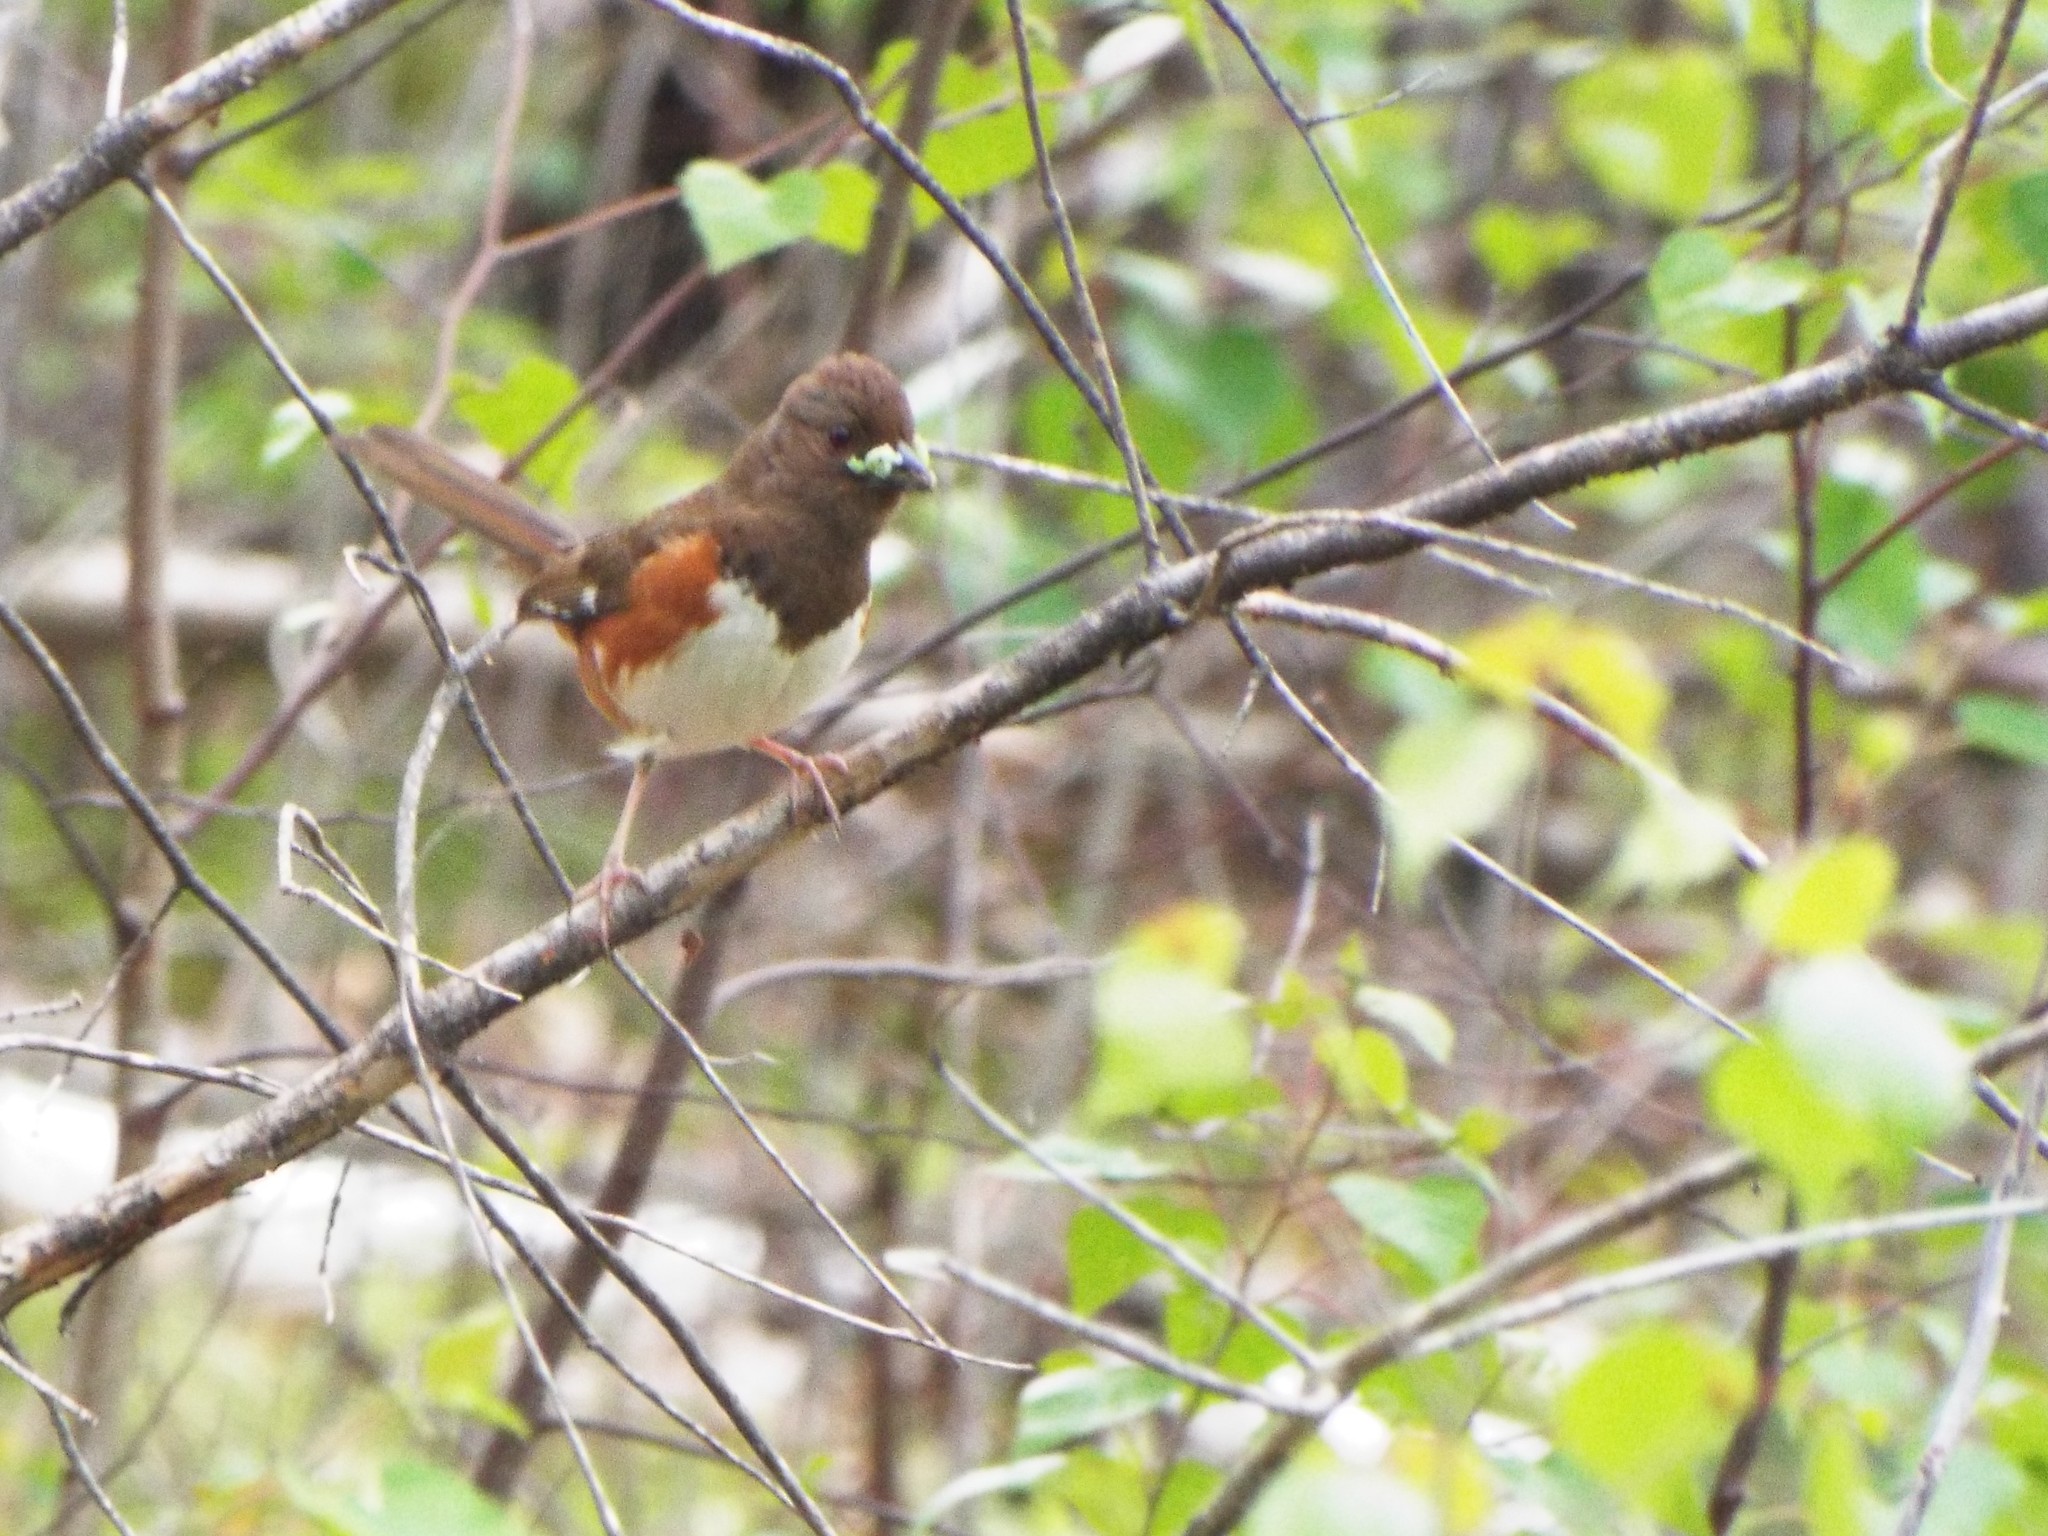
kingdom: Animalia
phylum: Chordata
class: Aves
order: Passeriformes
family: Passerellidae
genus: Pipilo
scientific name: Pipilo erythrophthalmus
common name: Eastern towhee
